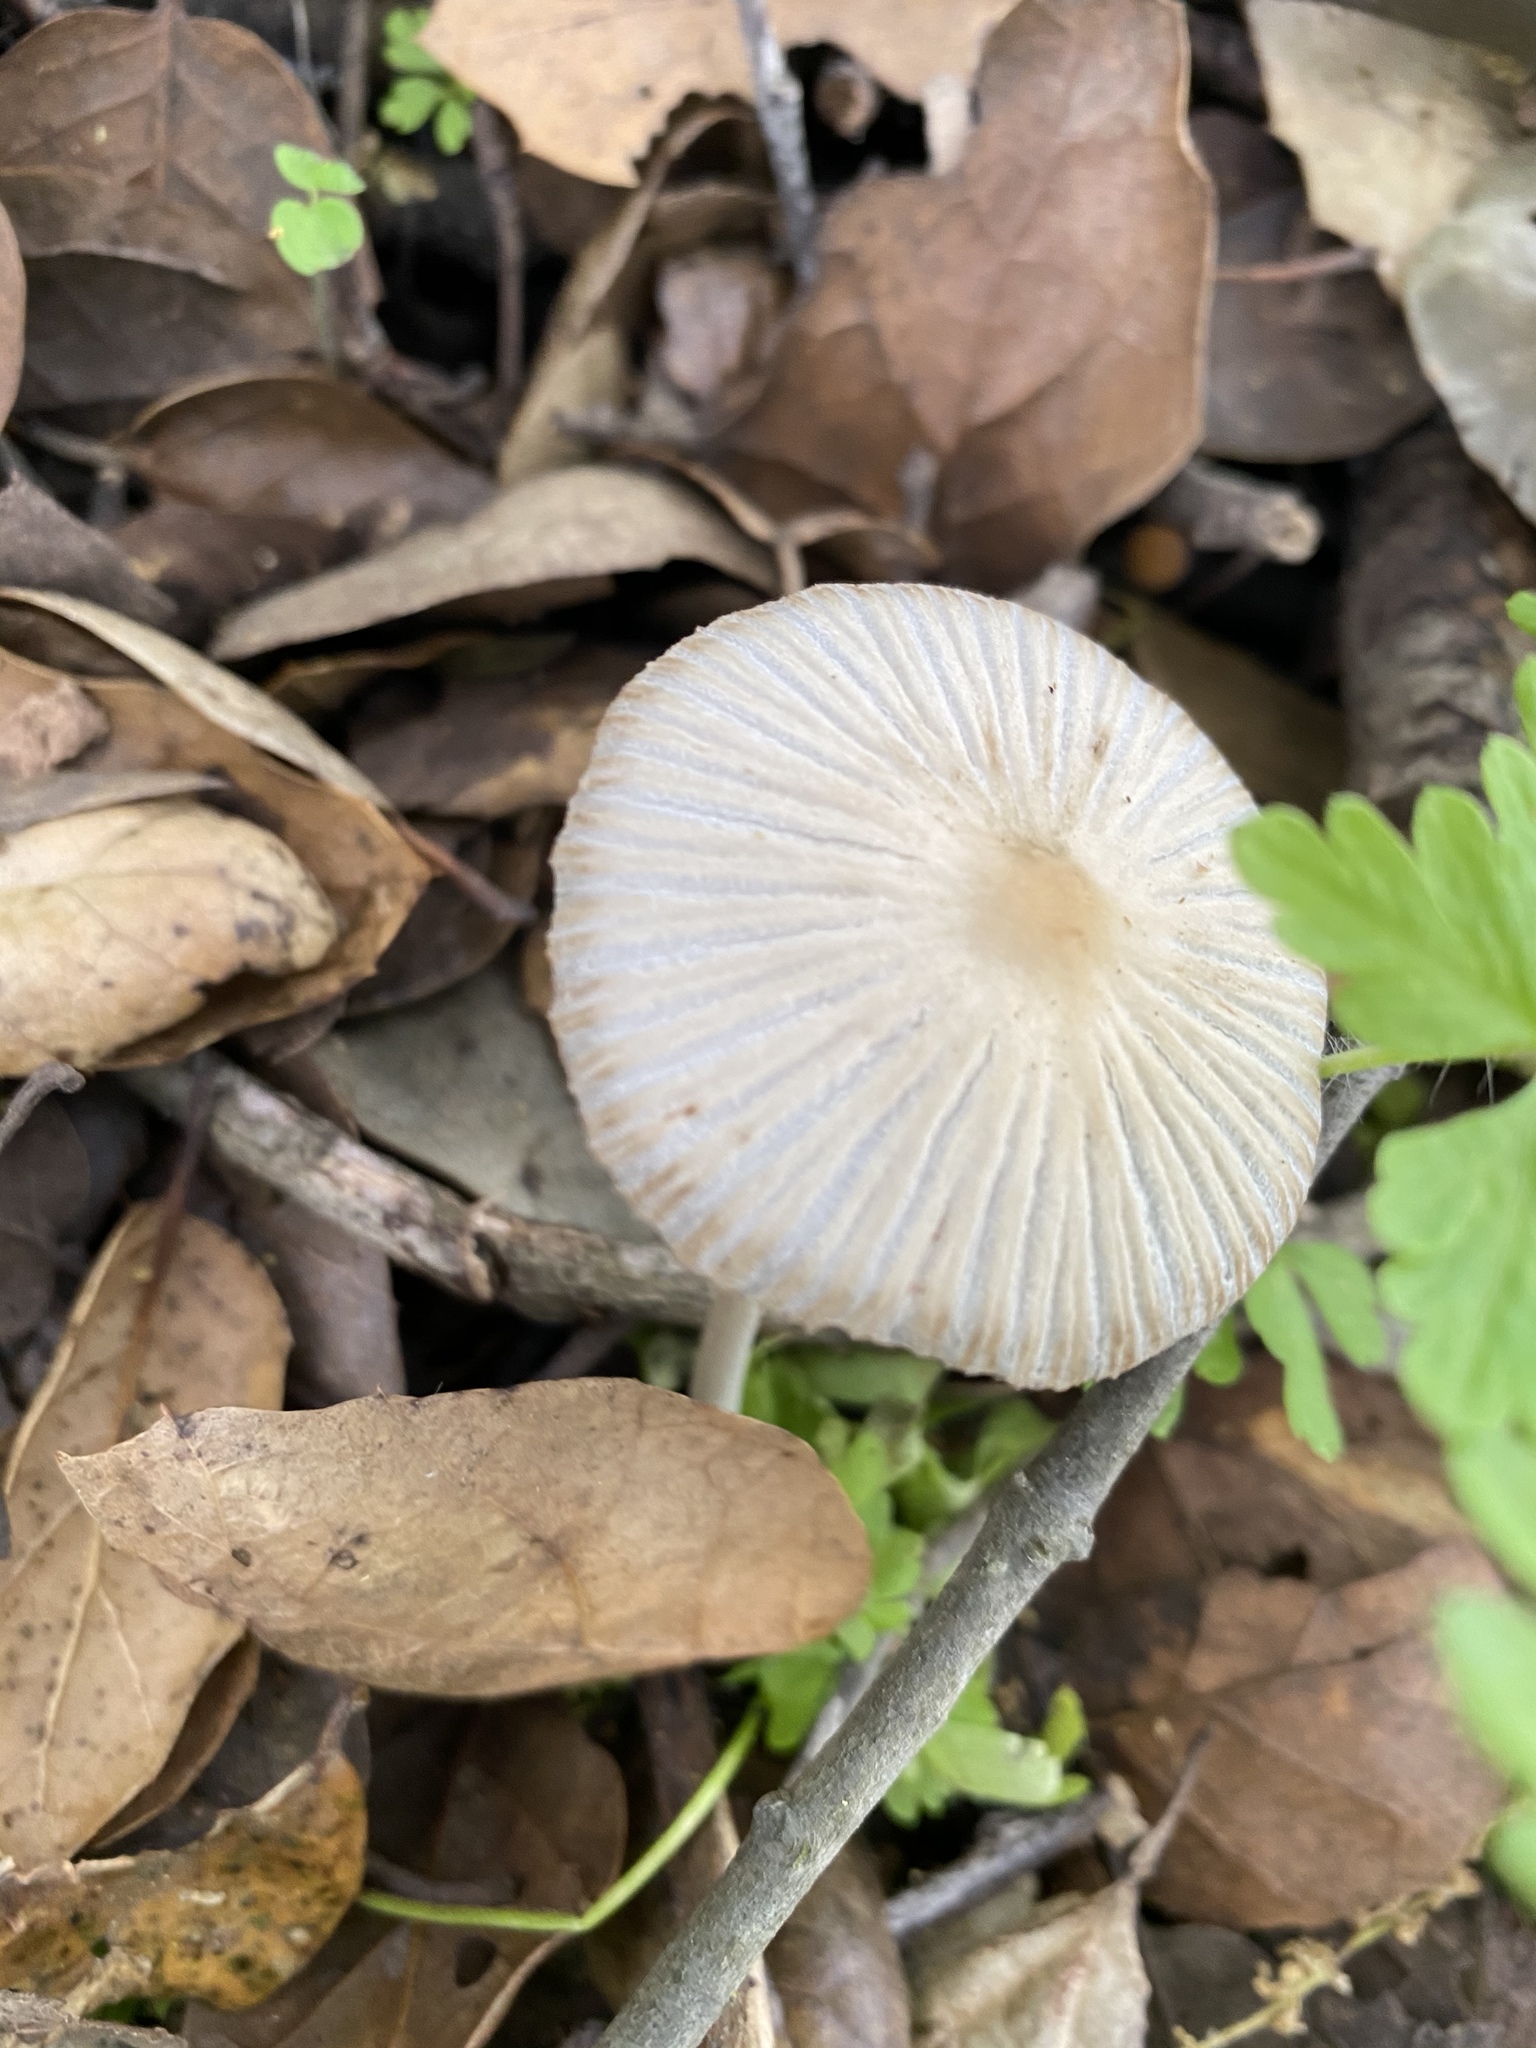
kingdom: Fungi
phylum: Basidiomycota
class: Agaricomycetes
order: Agaricales
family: Psathyrellaceae
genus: Tulosesus
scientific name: Tulosesus impatiens
